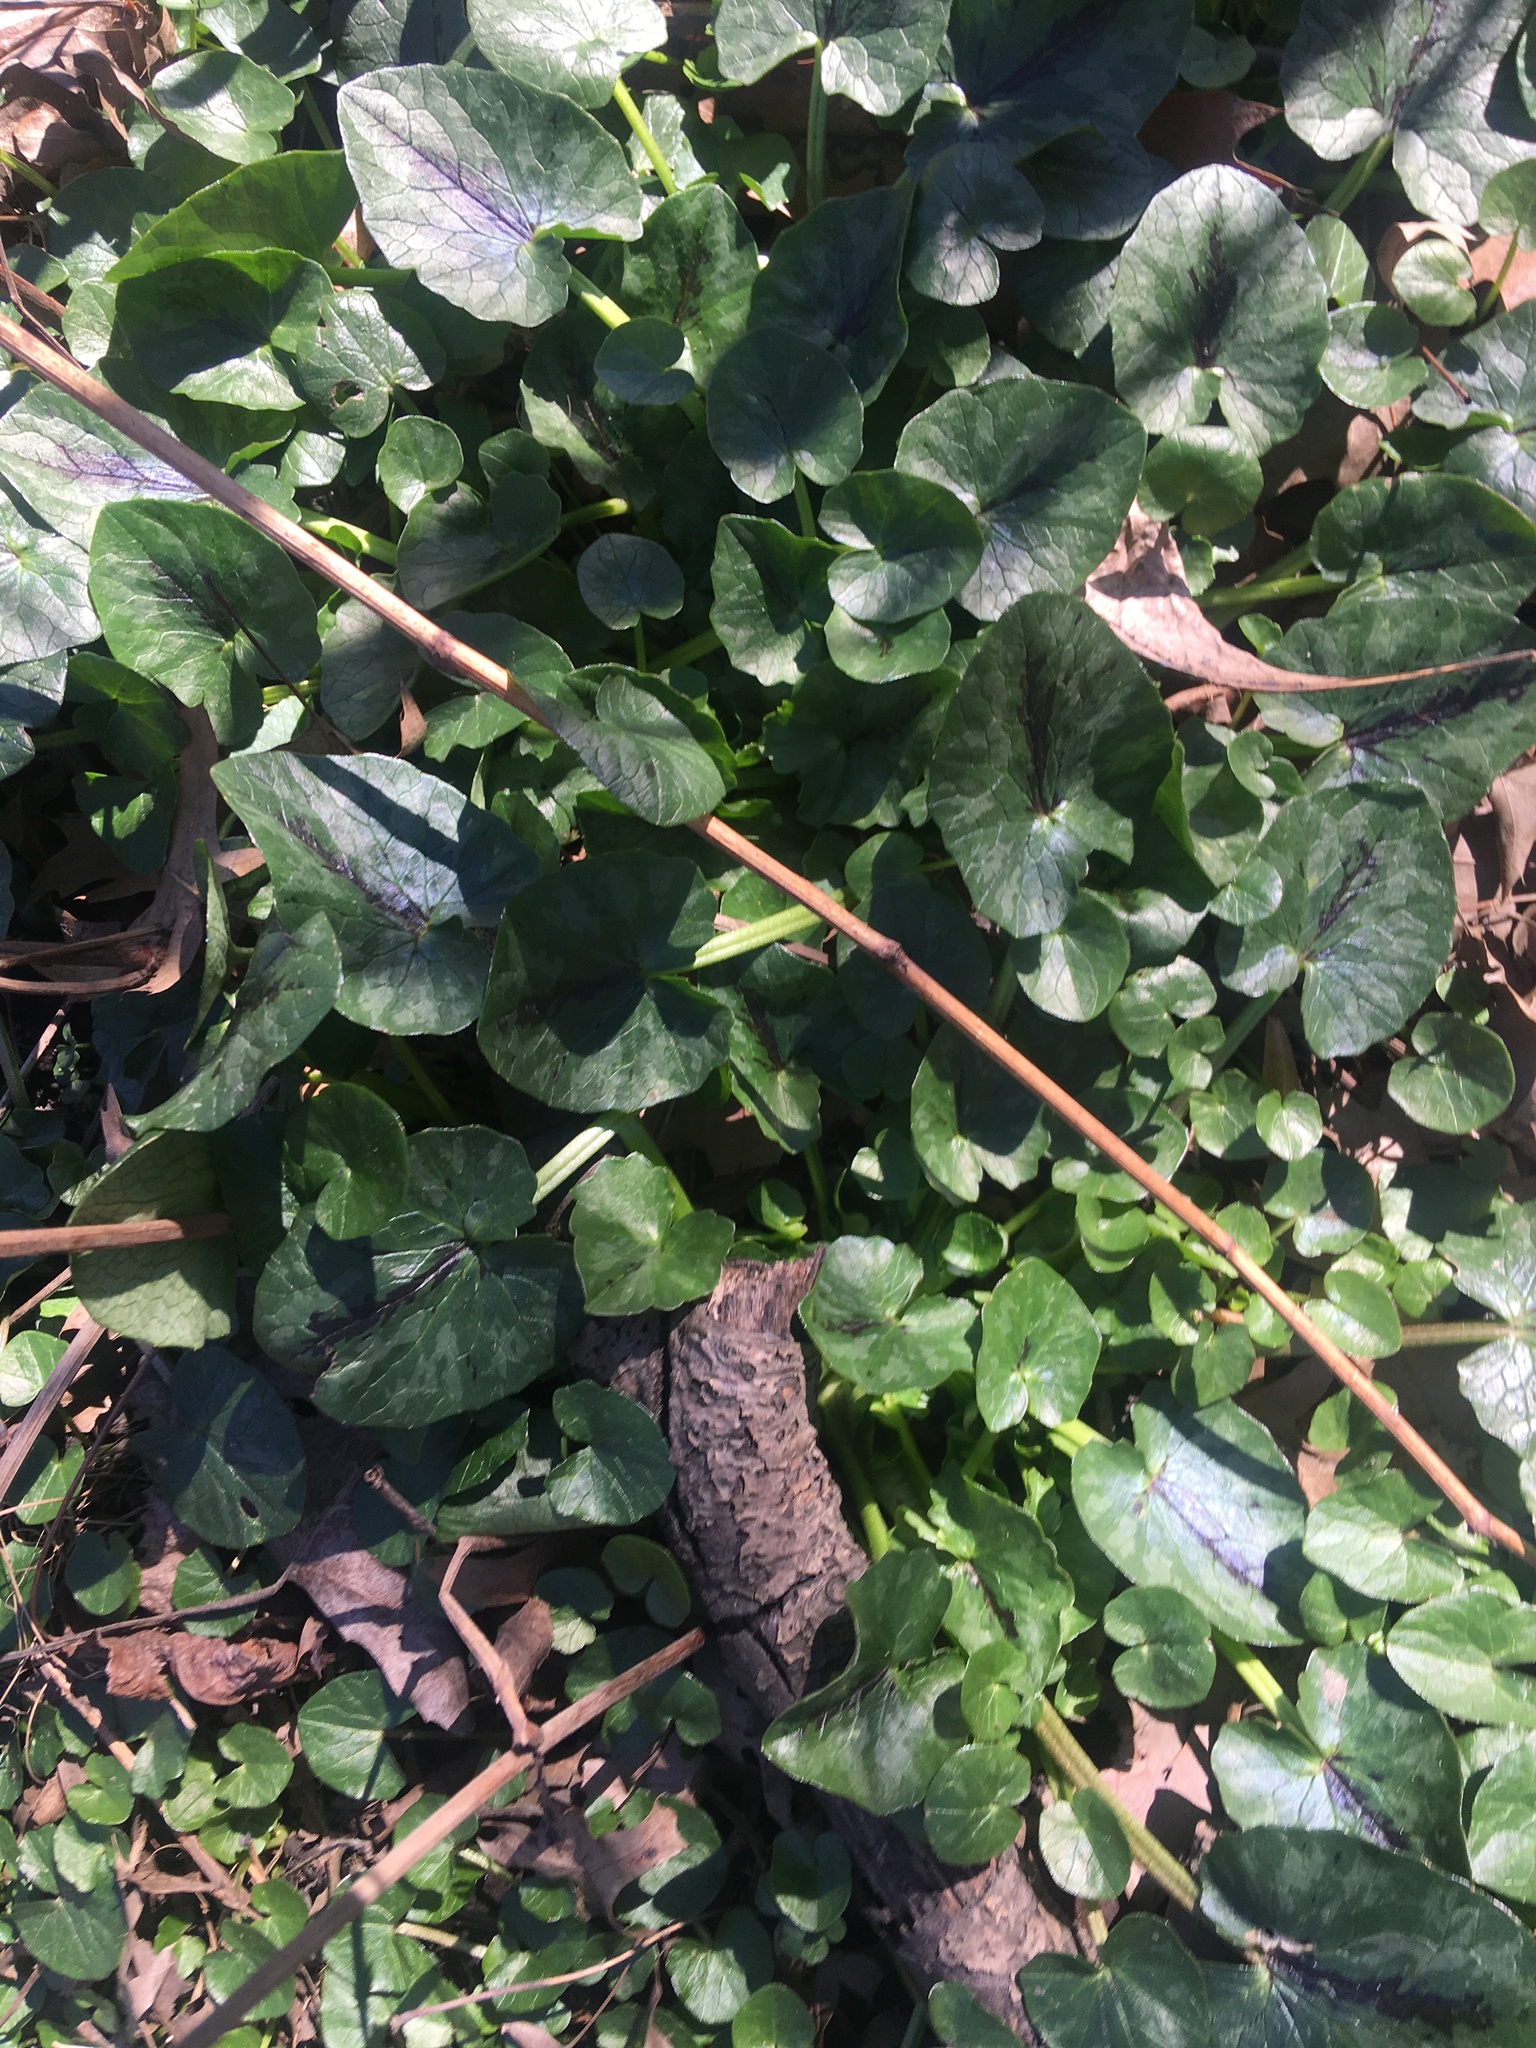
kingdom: Plantae
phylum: Tracheophyta
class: Magnoliopsida
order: Ranunculales
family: Ranunculaceae
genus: Ficaria
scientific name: Ficaria verna
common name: Lesser celandine
